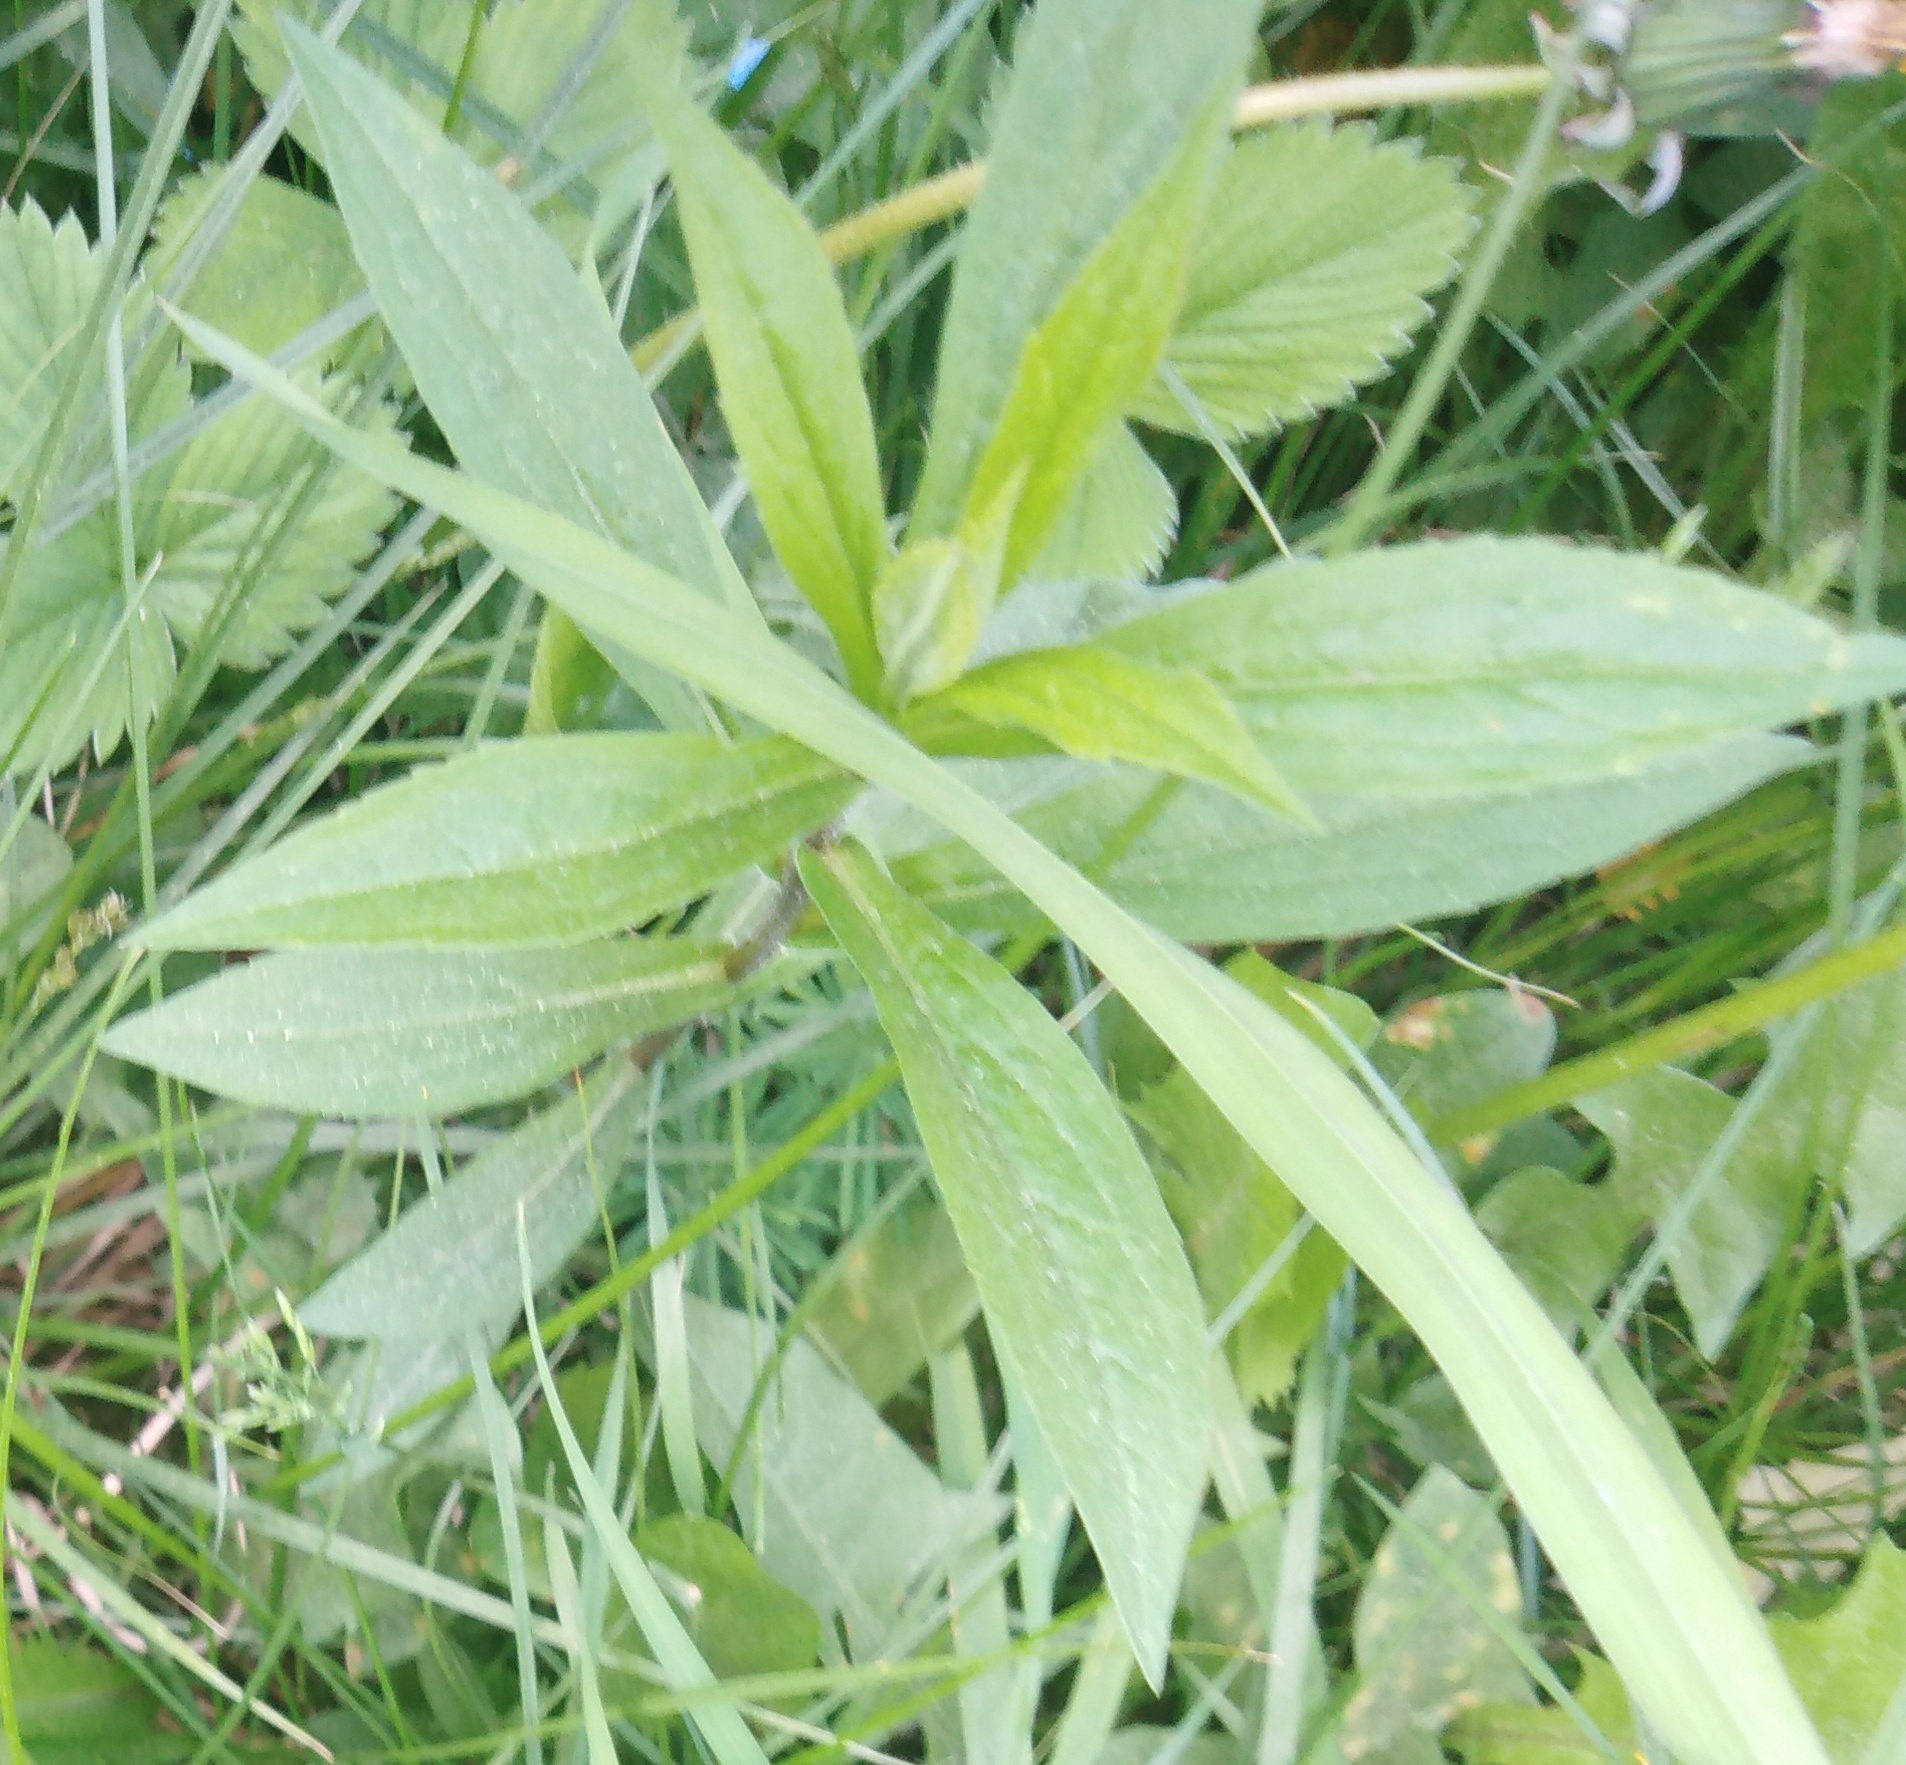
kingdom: Plantae
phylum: Tracheophyta
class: Magnoliopsida
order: Asterales
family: Asteraceae
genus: Solidago
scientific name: Solidago canadensis
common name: Canada goldenrod
